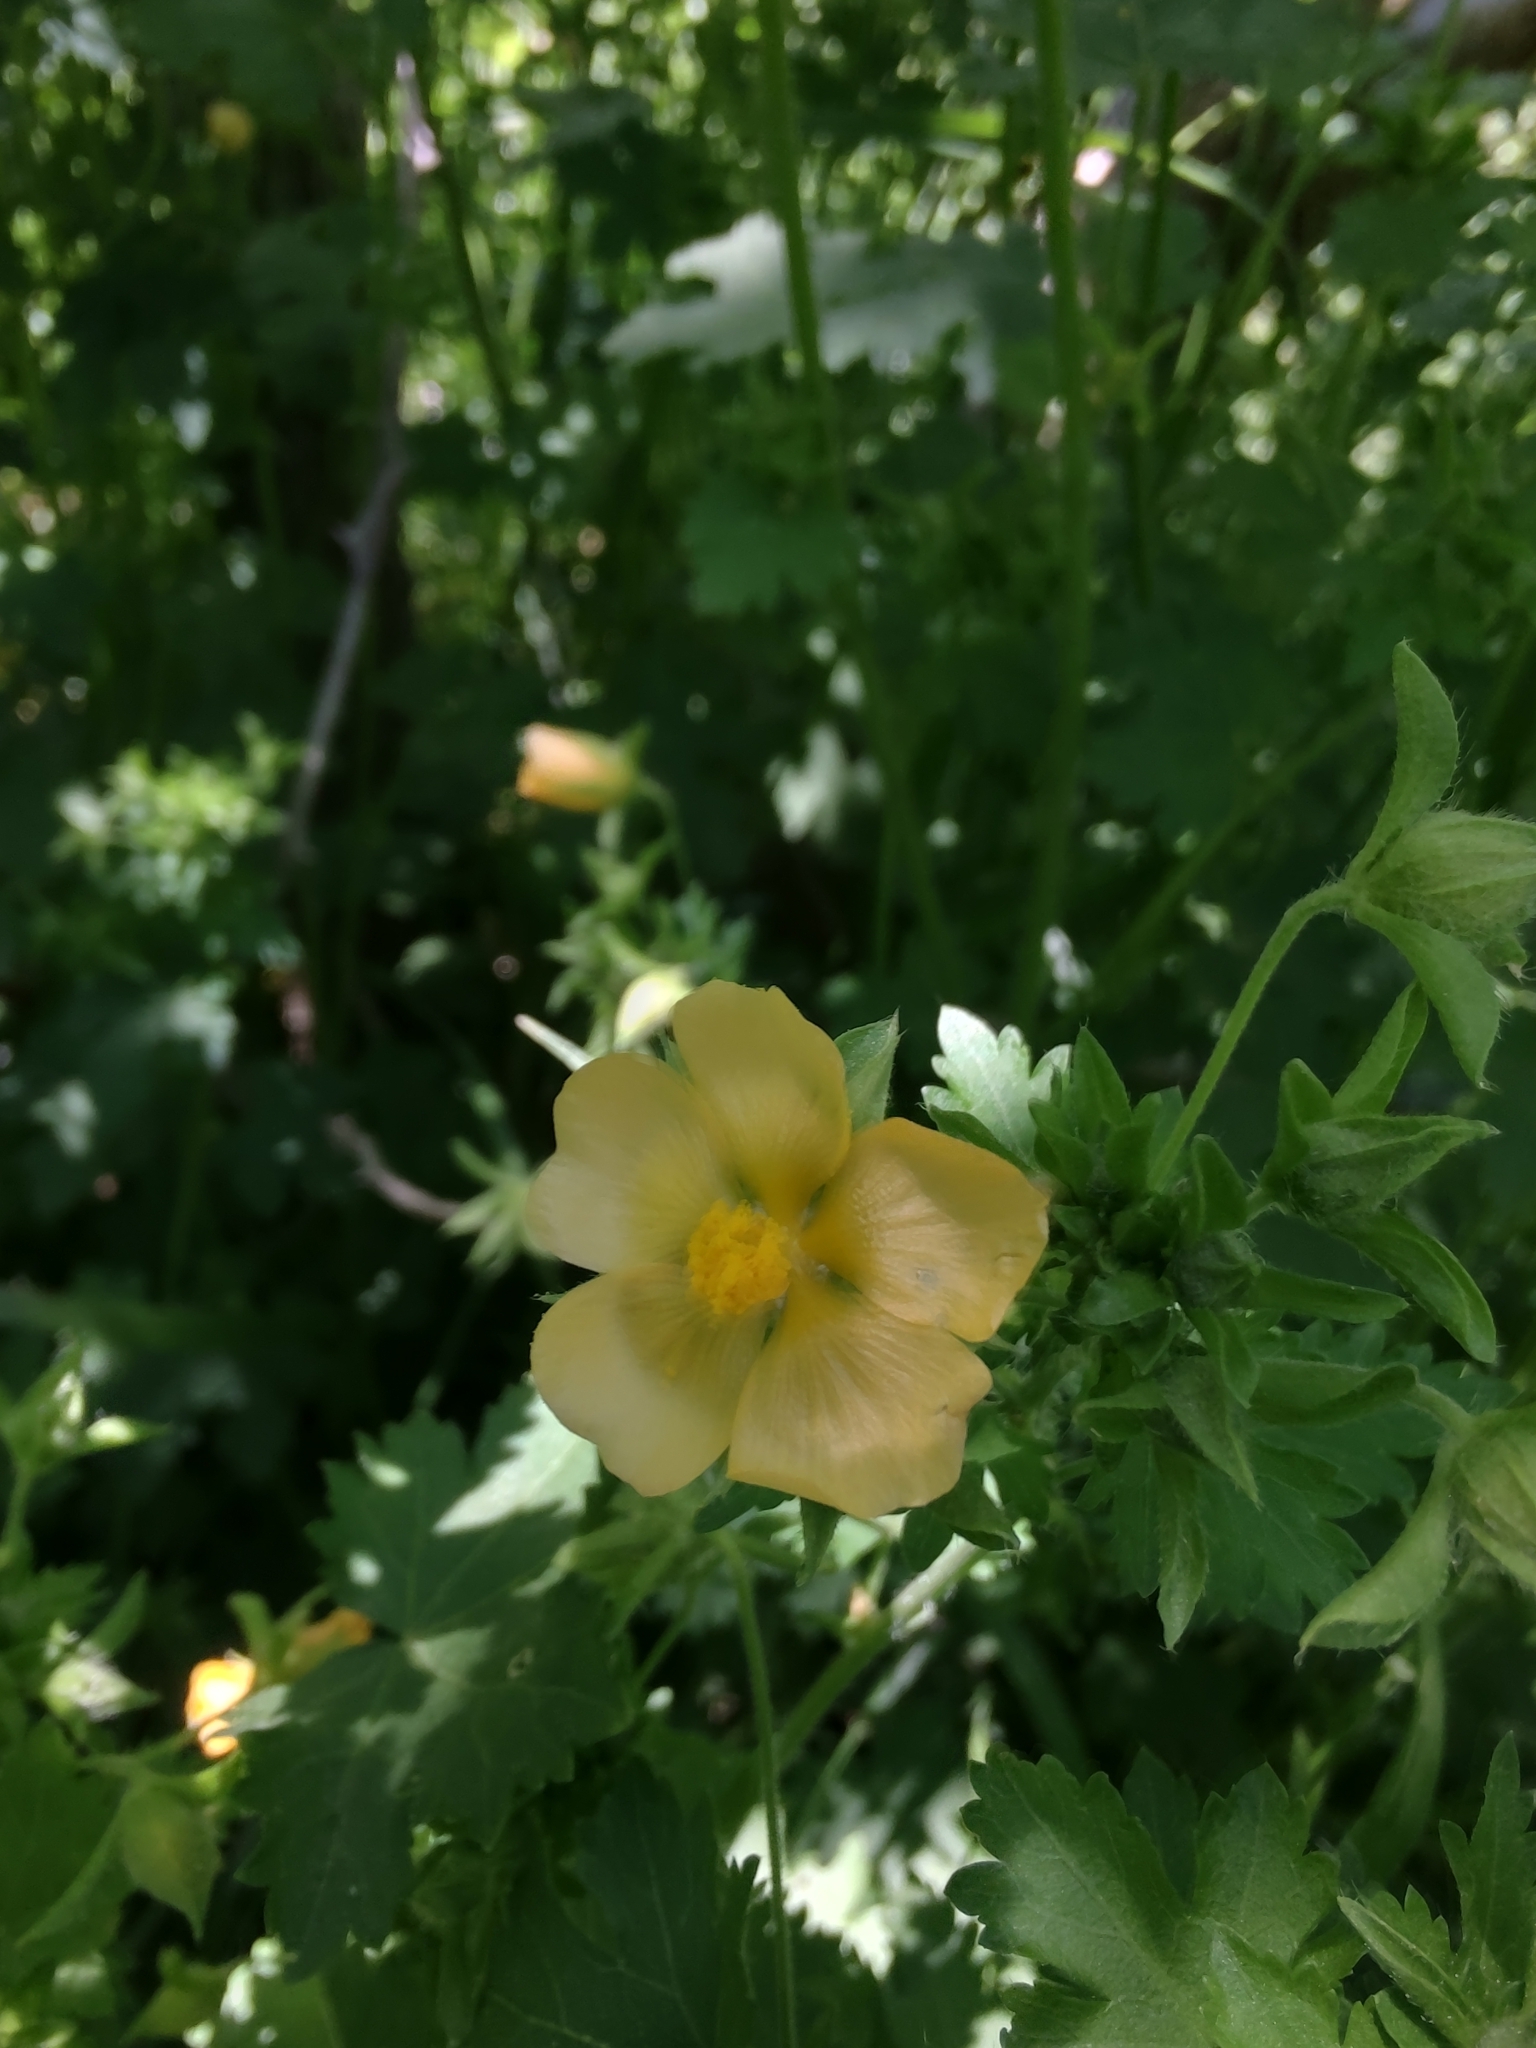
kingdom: Plantae
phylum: Tracheophyta
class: Magnoliopsida
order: Malvales
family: Malvaceae
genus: Modiolastrum
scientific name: Modiolastrum malvifolium
